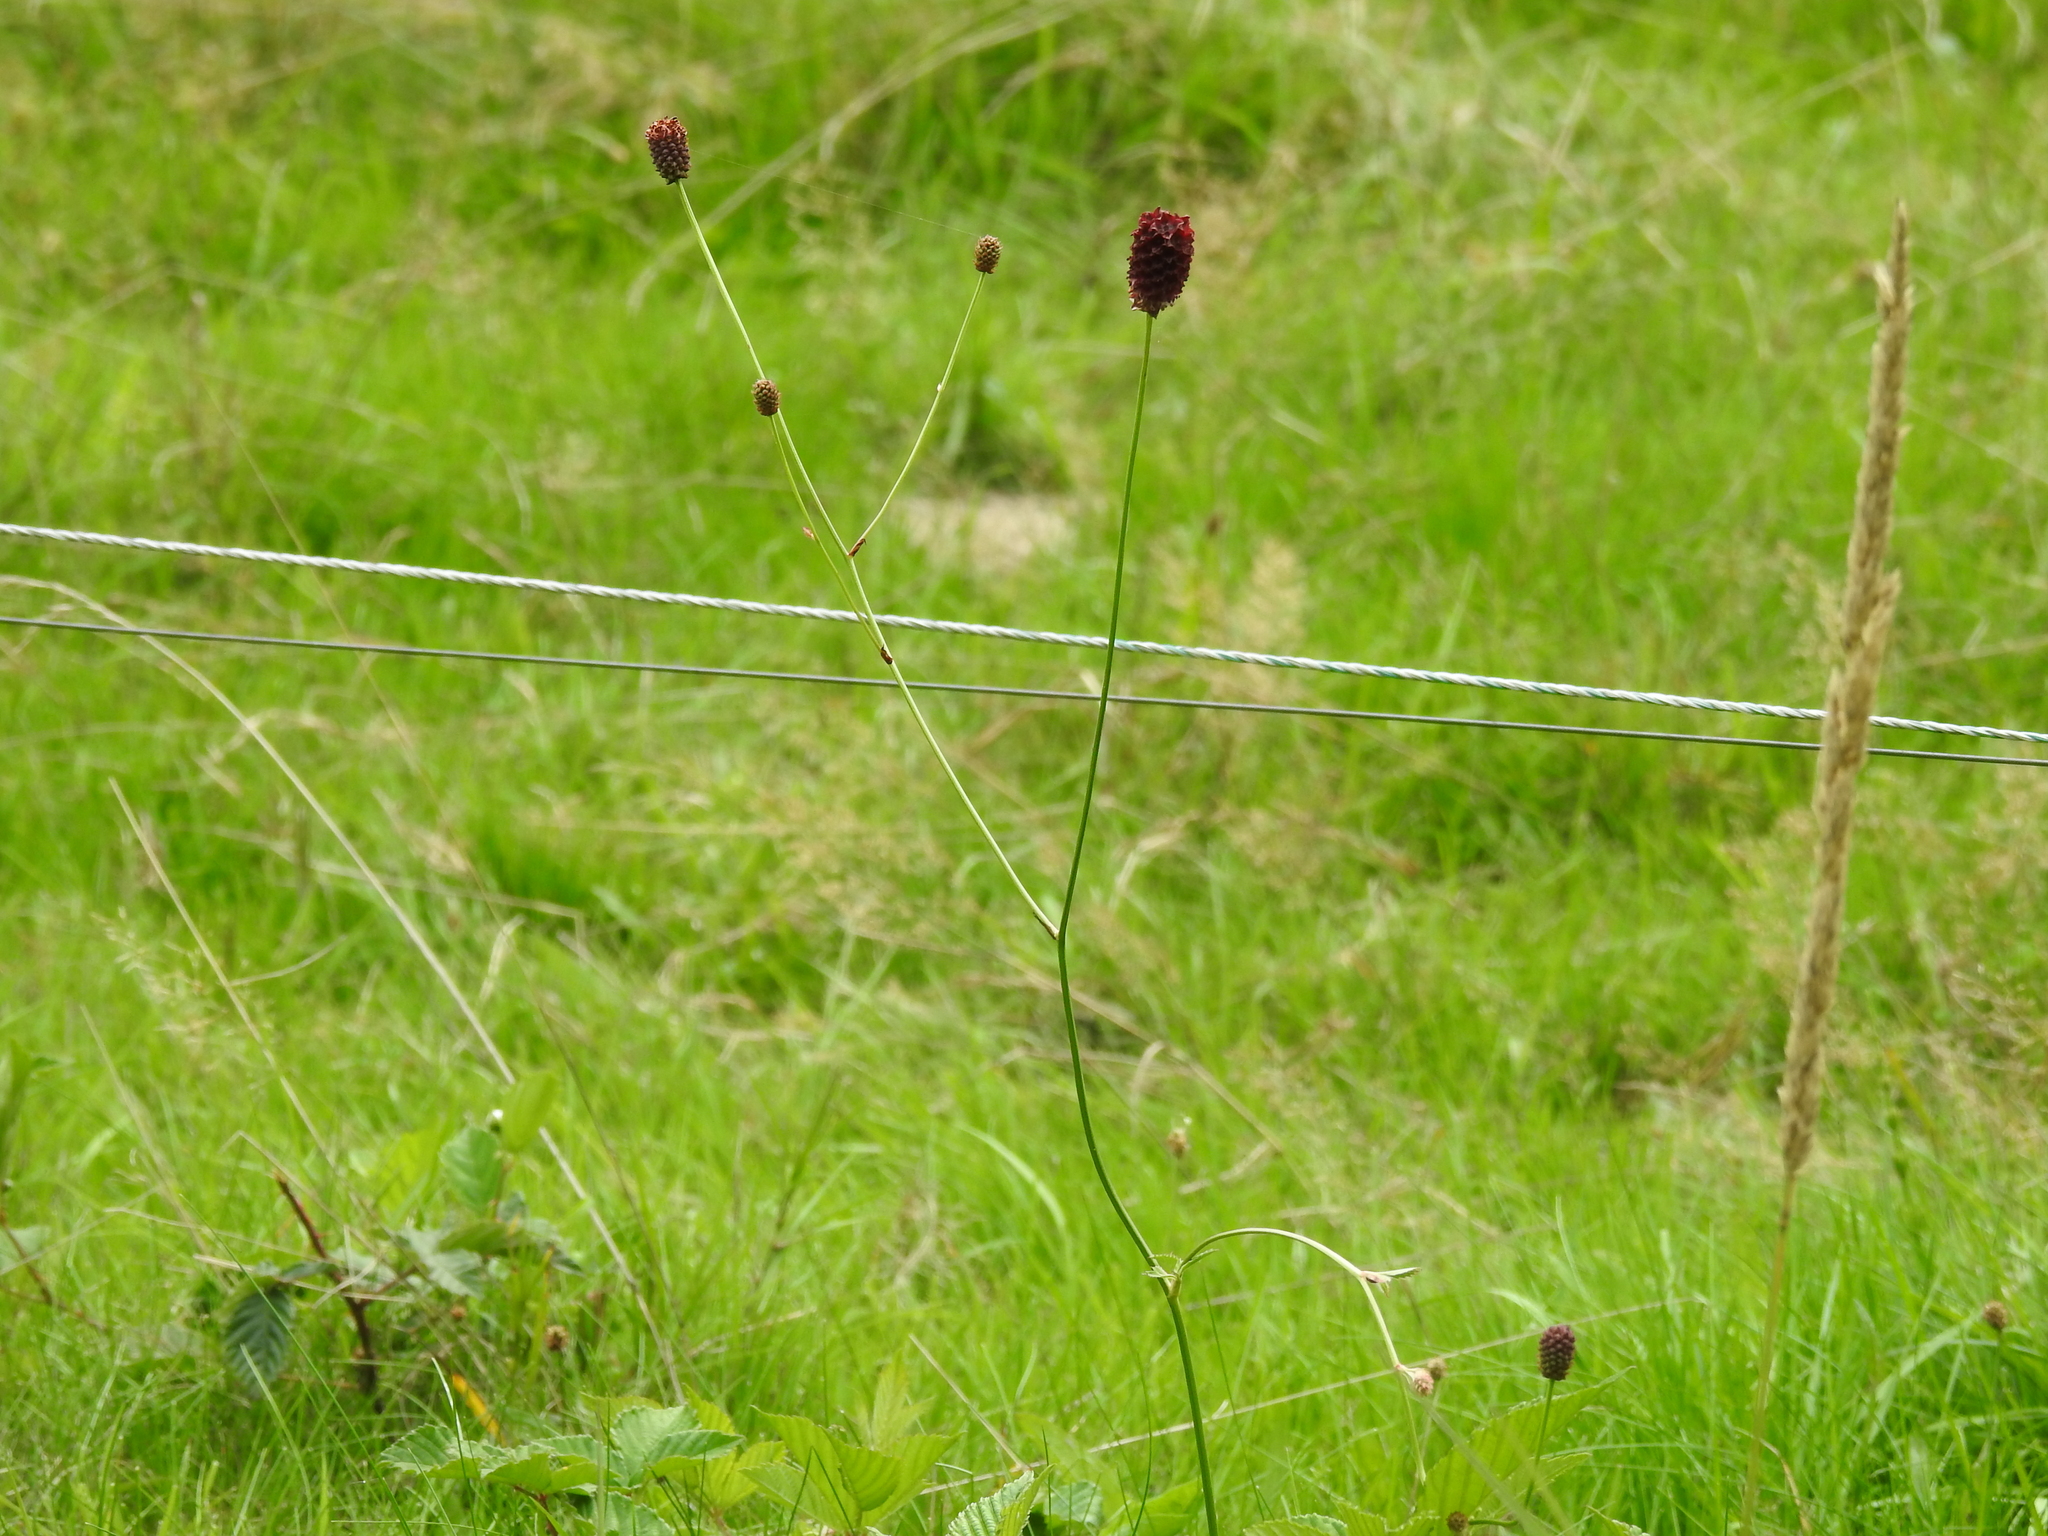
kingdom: Plantae
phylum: Tracheophyta
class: Magnoliopsida
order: Rosales
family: Rosaceae
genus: Sanguisorba
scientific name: Sanguisorba officinalis
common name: Great burnet
